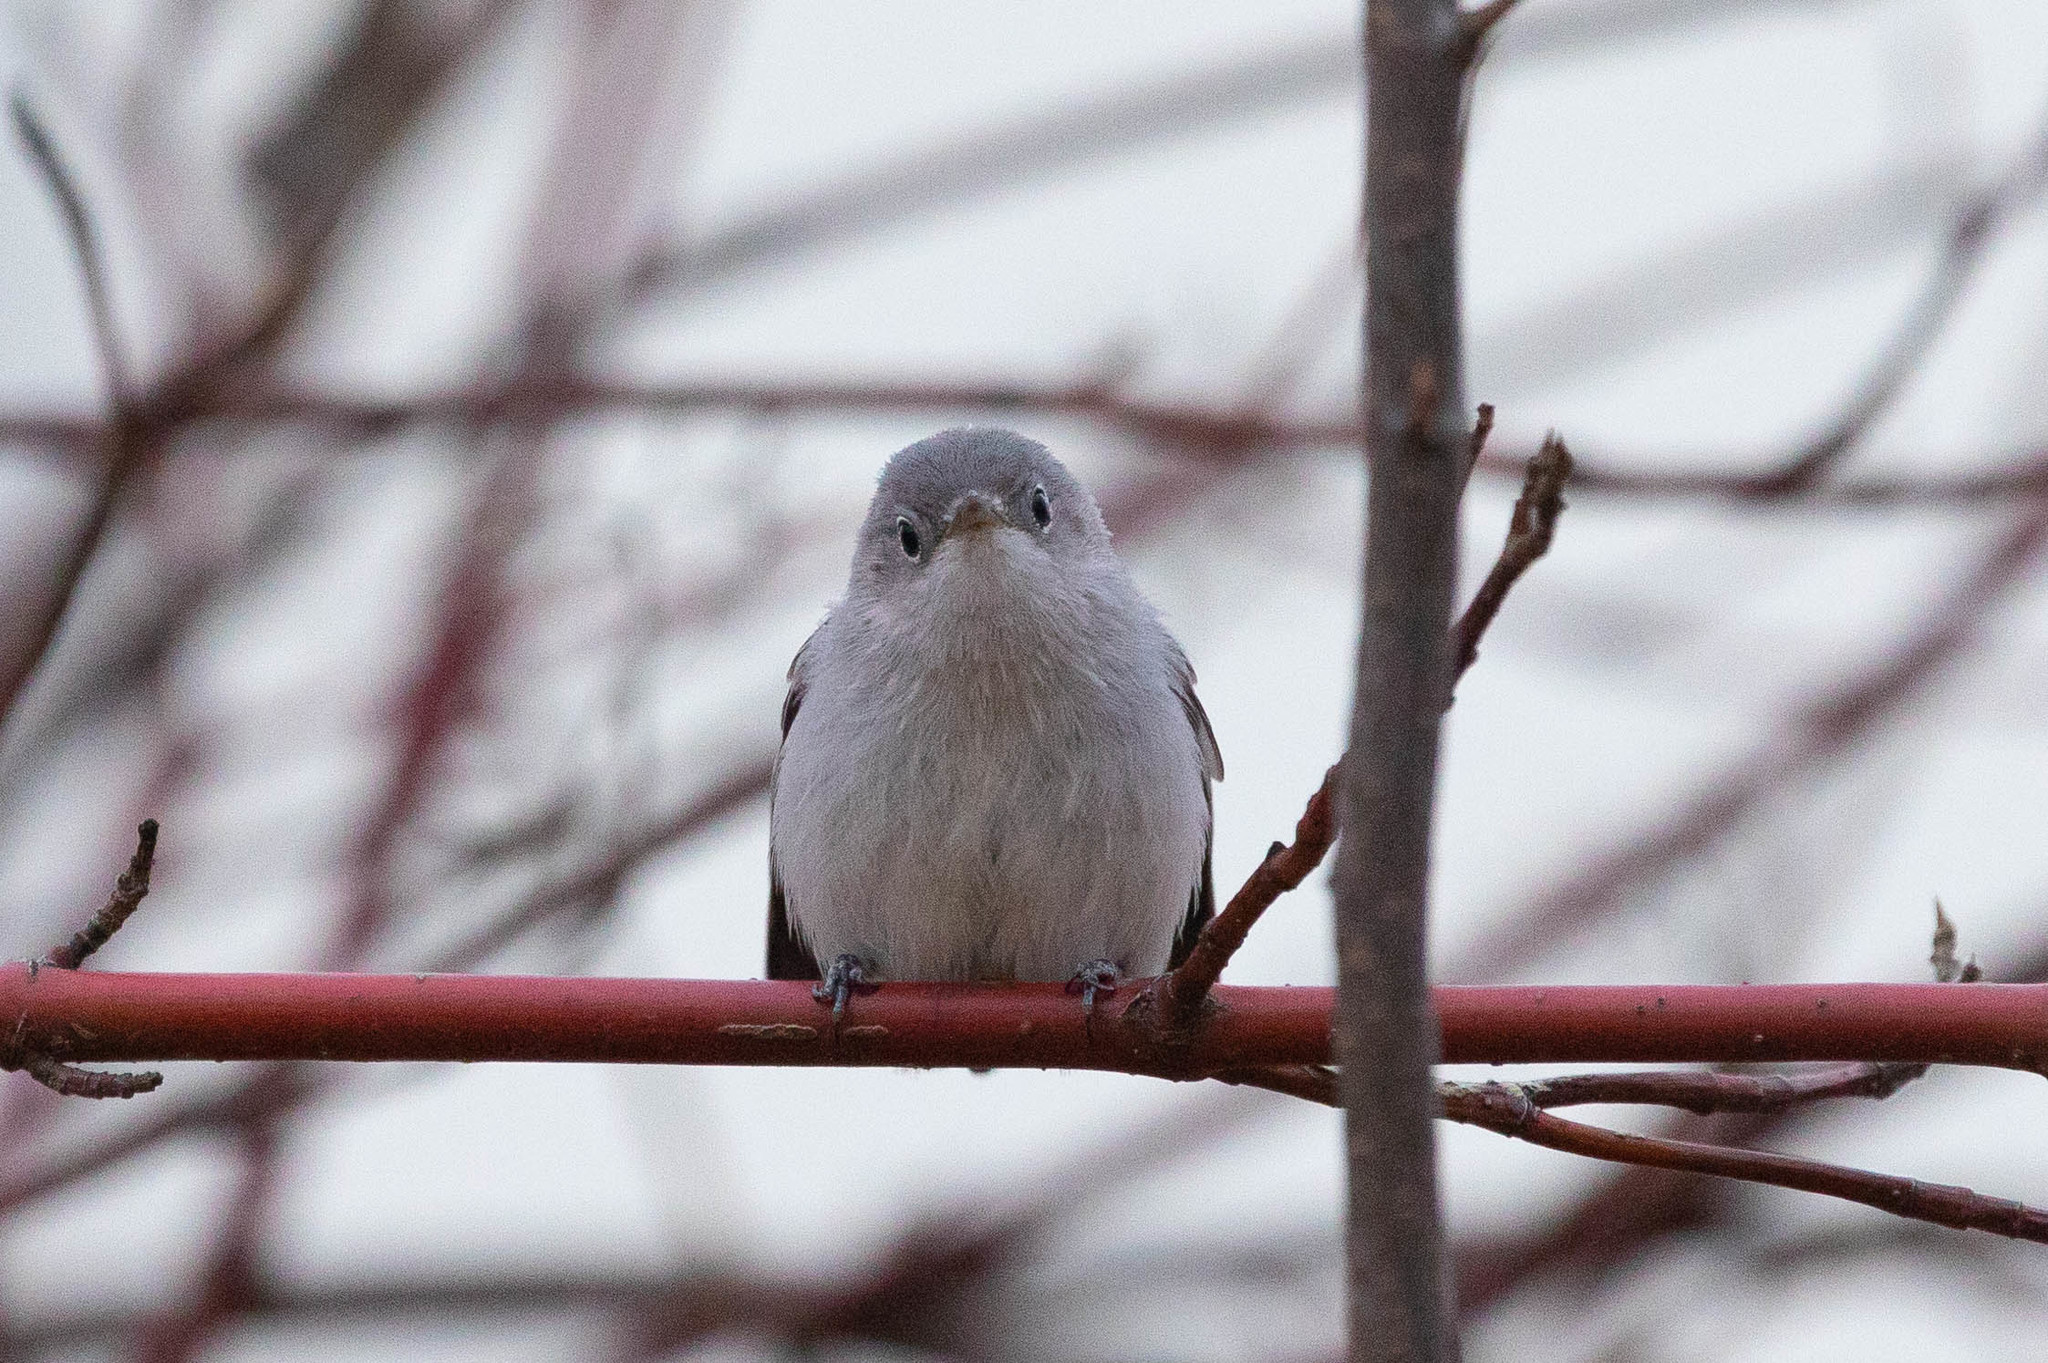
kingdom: Animalia
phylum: Chordata
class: Aves
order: Passeriformes
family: Polioptilidae
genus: Polioptila
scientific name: Polioptila caerulea
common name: Blue-gray gnatcatcher
